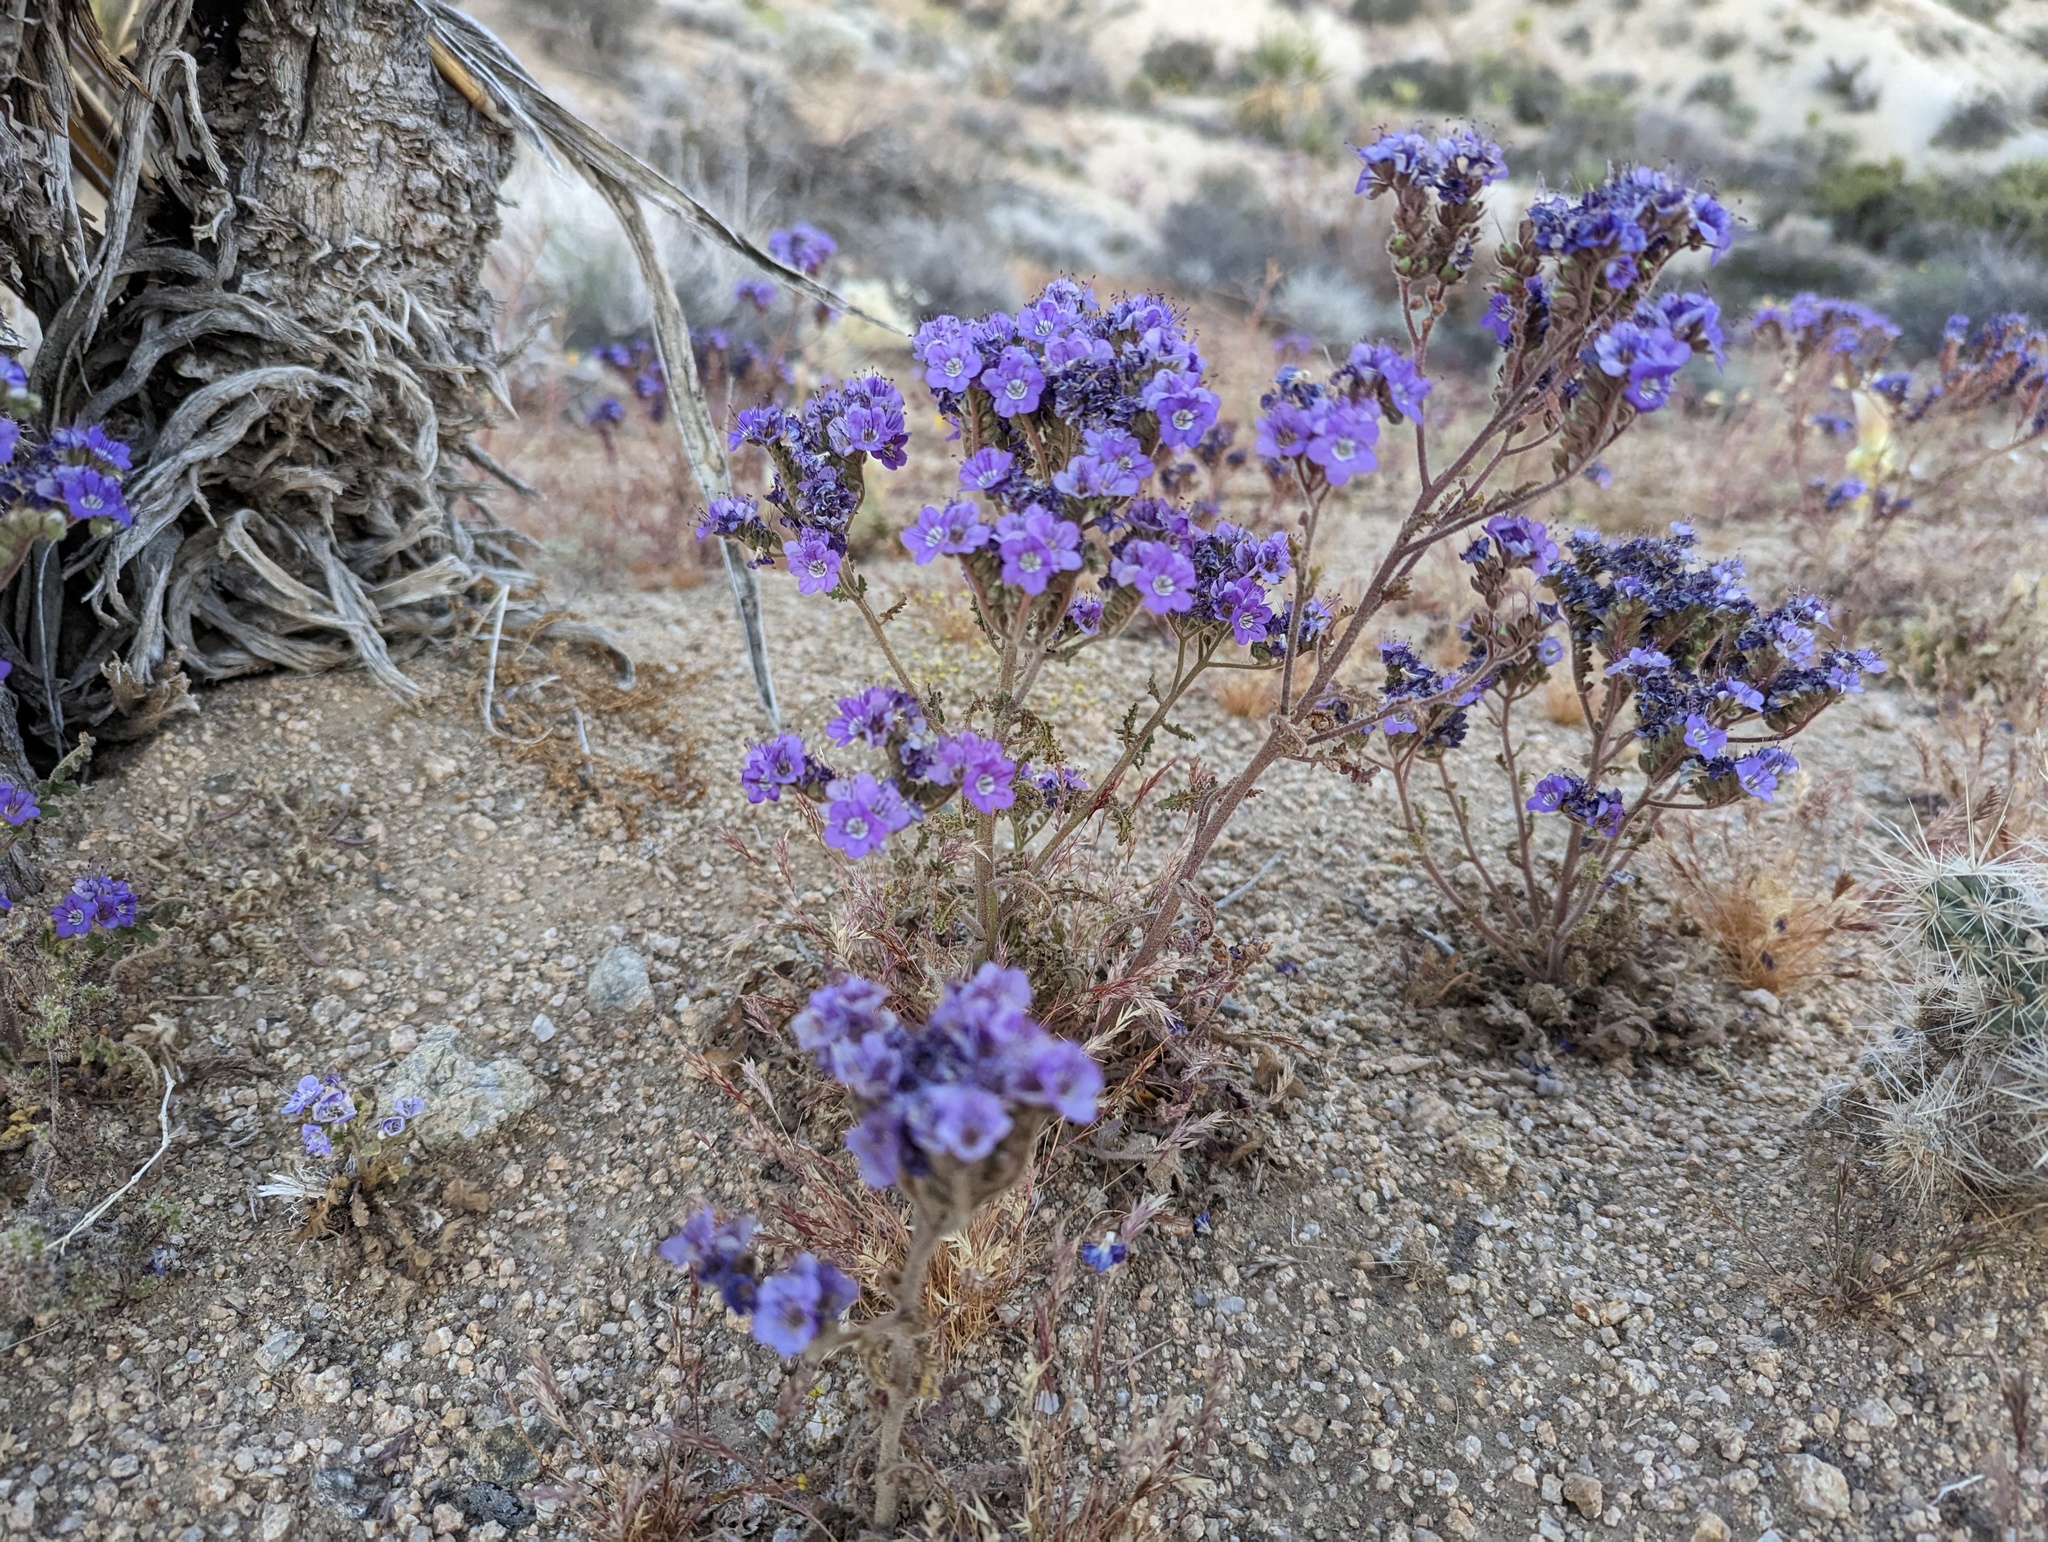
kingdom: Plantae
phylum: Tracheophyta
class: Magnoliopsida
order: Boraginales
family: Hydrophyllaceae
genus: Phacelia
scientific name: Phacelia crenulata
